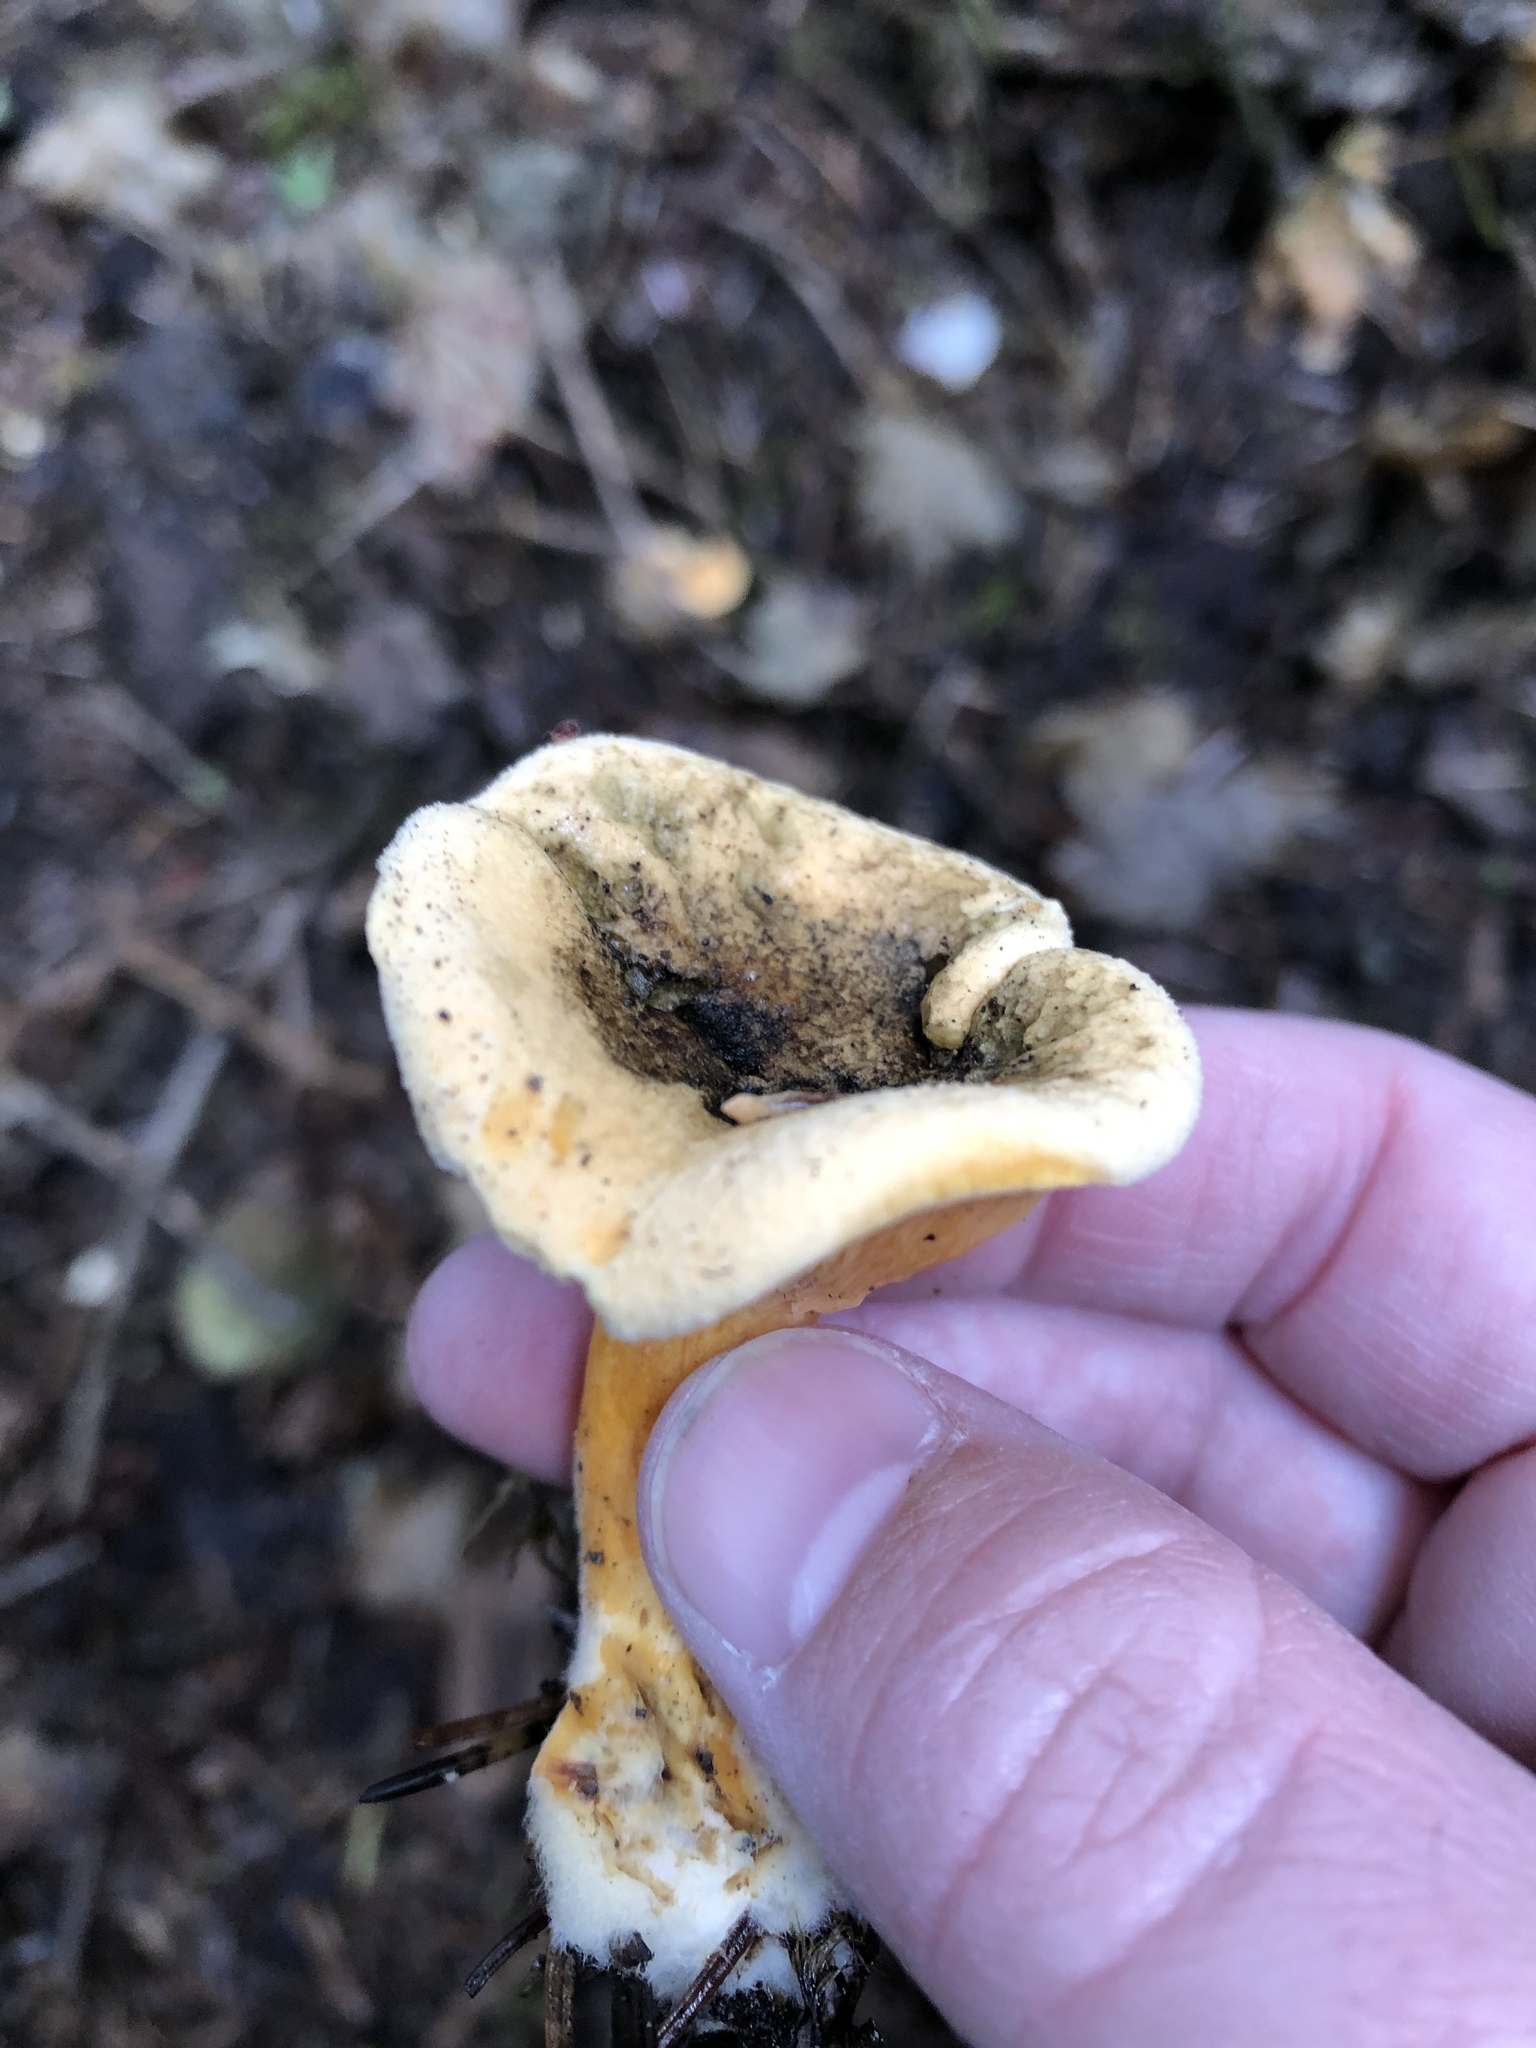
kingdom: Fungi
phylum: Basidiomycota
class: Agaricomycetes
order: Boletales
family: Hygrophoropsidaceae
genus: Hygrophoropsis
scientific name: Hygrophoropsis aurantiaca
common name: False chanterelle
